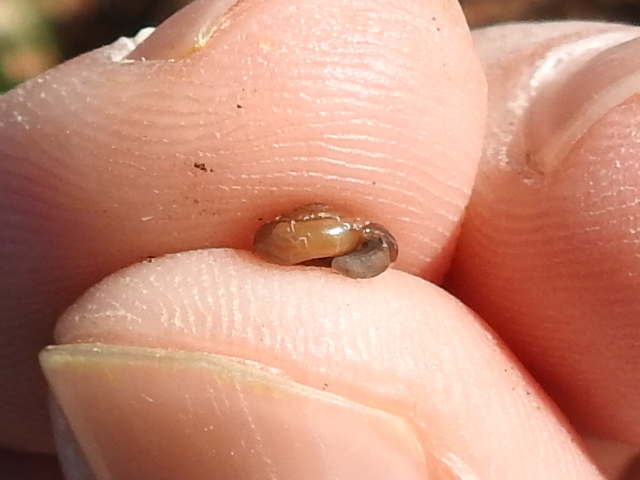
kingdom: Animalia
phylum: Mollusca
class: Gastropoda
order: Stylommatophora
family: Gastrodontidae
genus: Zonitoides
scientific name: Zonitoides arboreus
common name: Quick gloss
